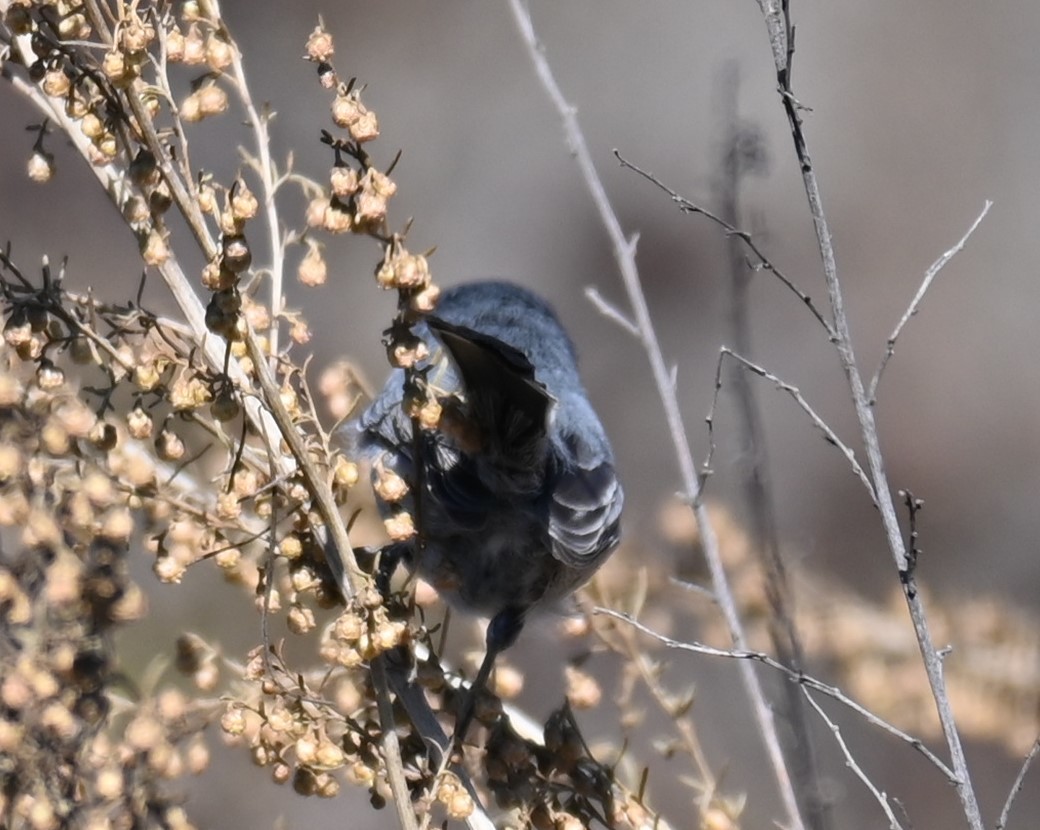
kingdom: Animalia
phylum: Chordata
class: Aves
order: Passeriformes
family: Polioptilidae
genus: Polioptila
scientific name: Polioptila californica
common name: California gnatcatcher
